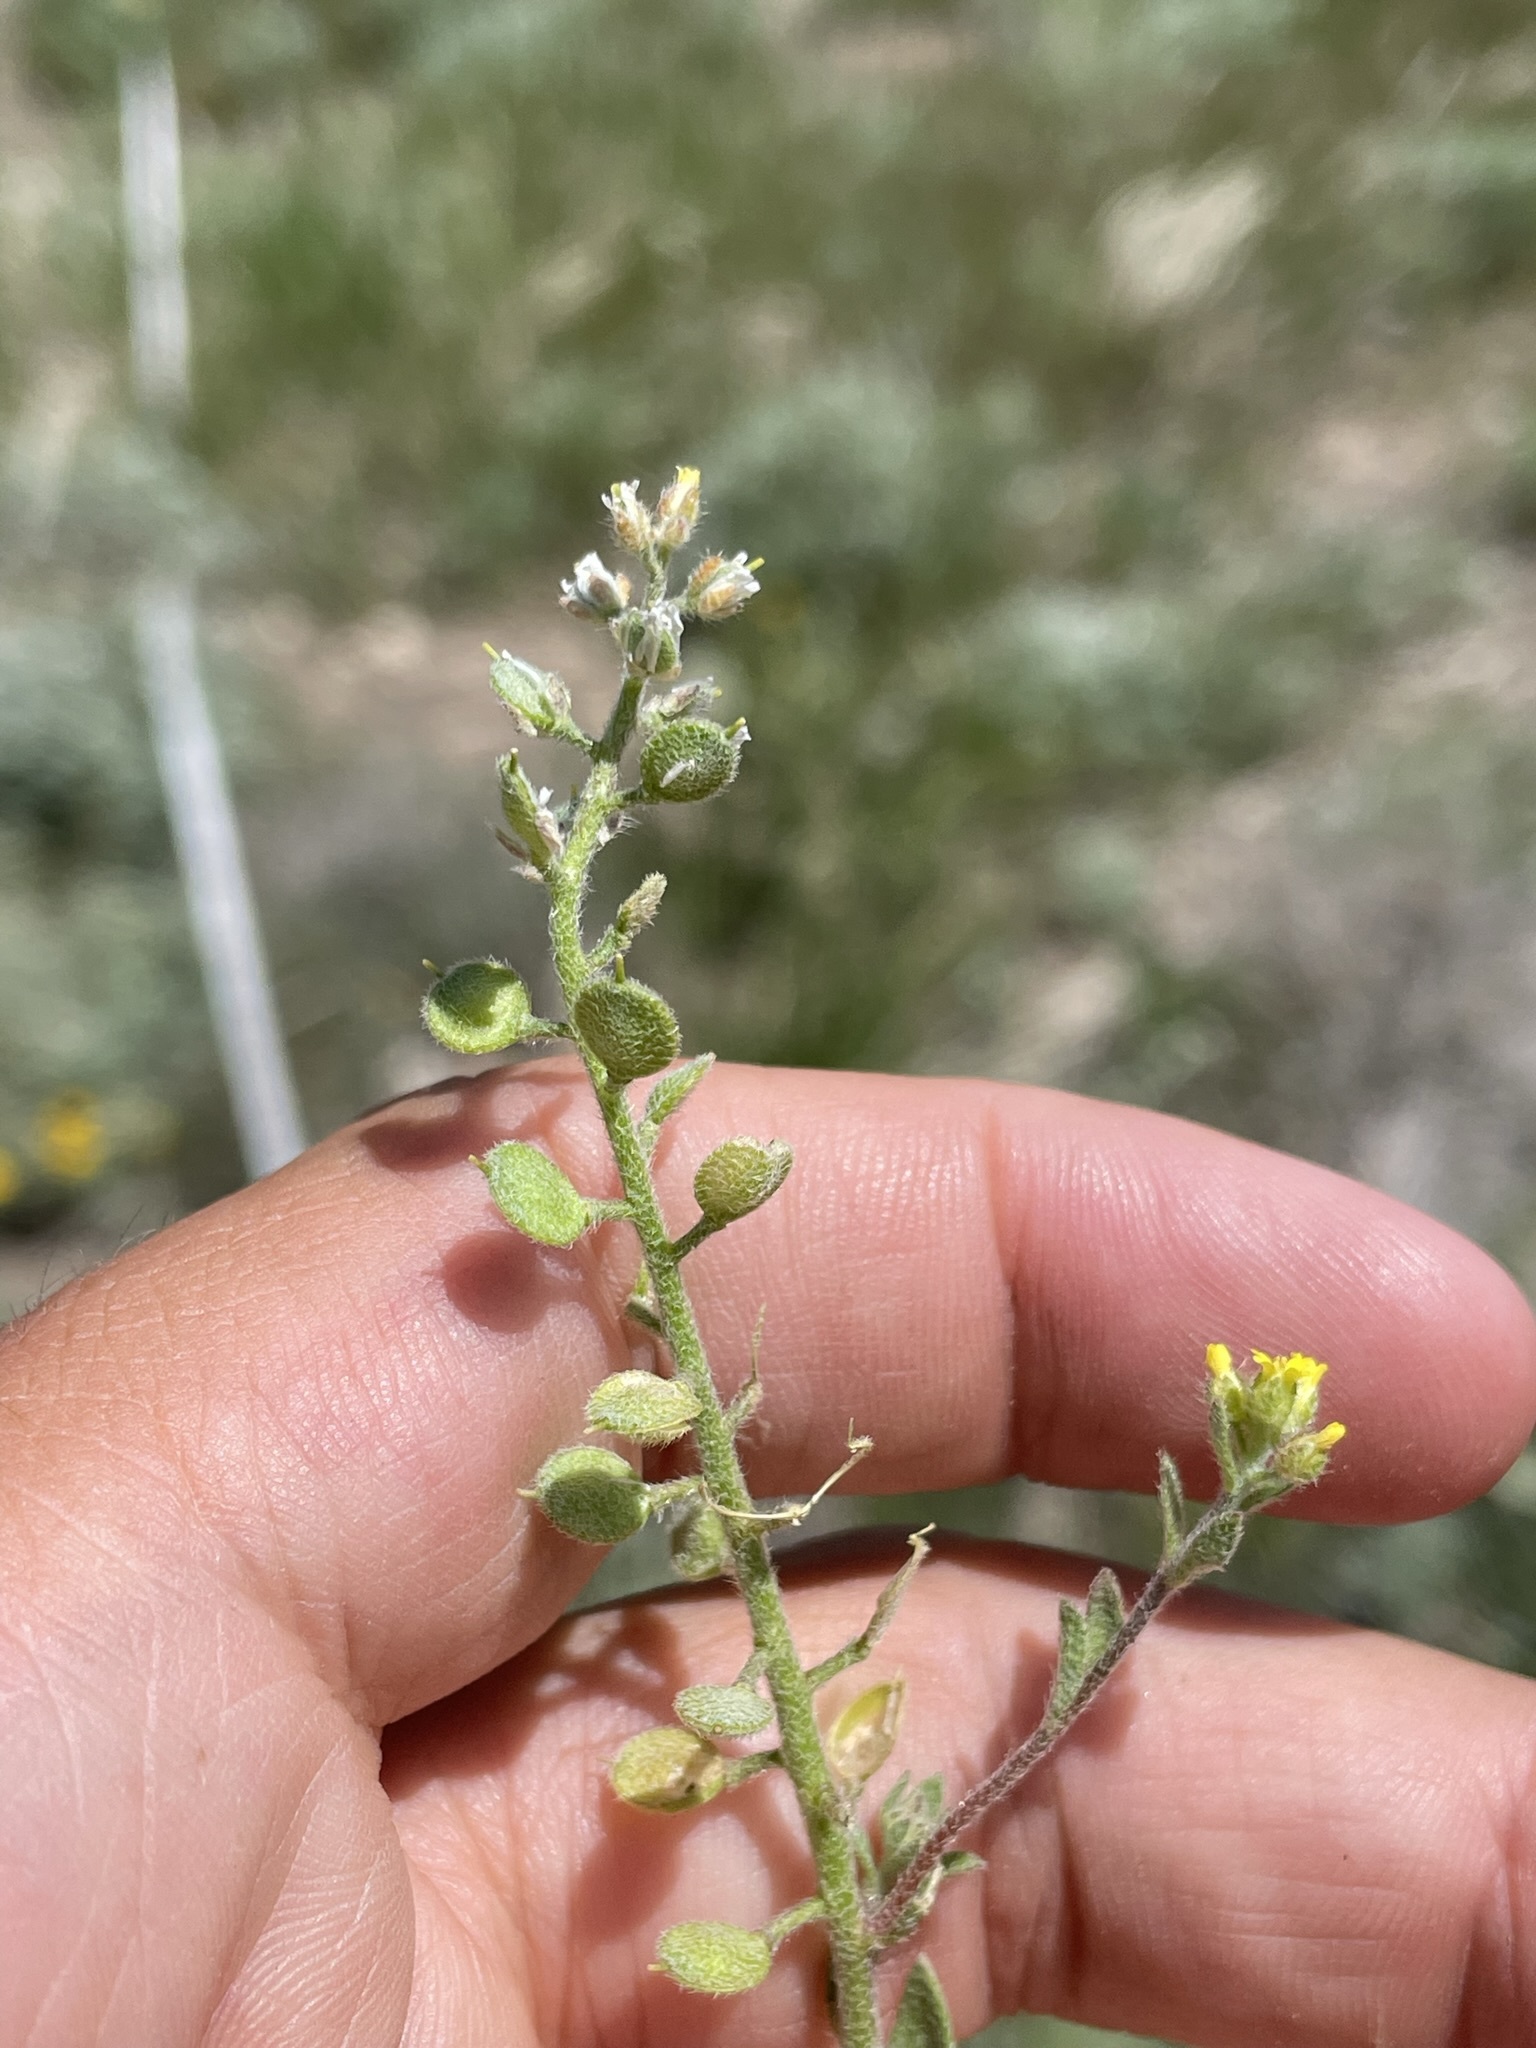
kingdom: Plantae
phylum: Tracheophyta
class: Magnoliopsida
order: Brassicales
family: Brassicaceae
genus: Alyssum
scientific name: Alyssum simplex
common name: Alyssum
